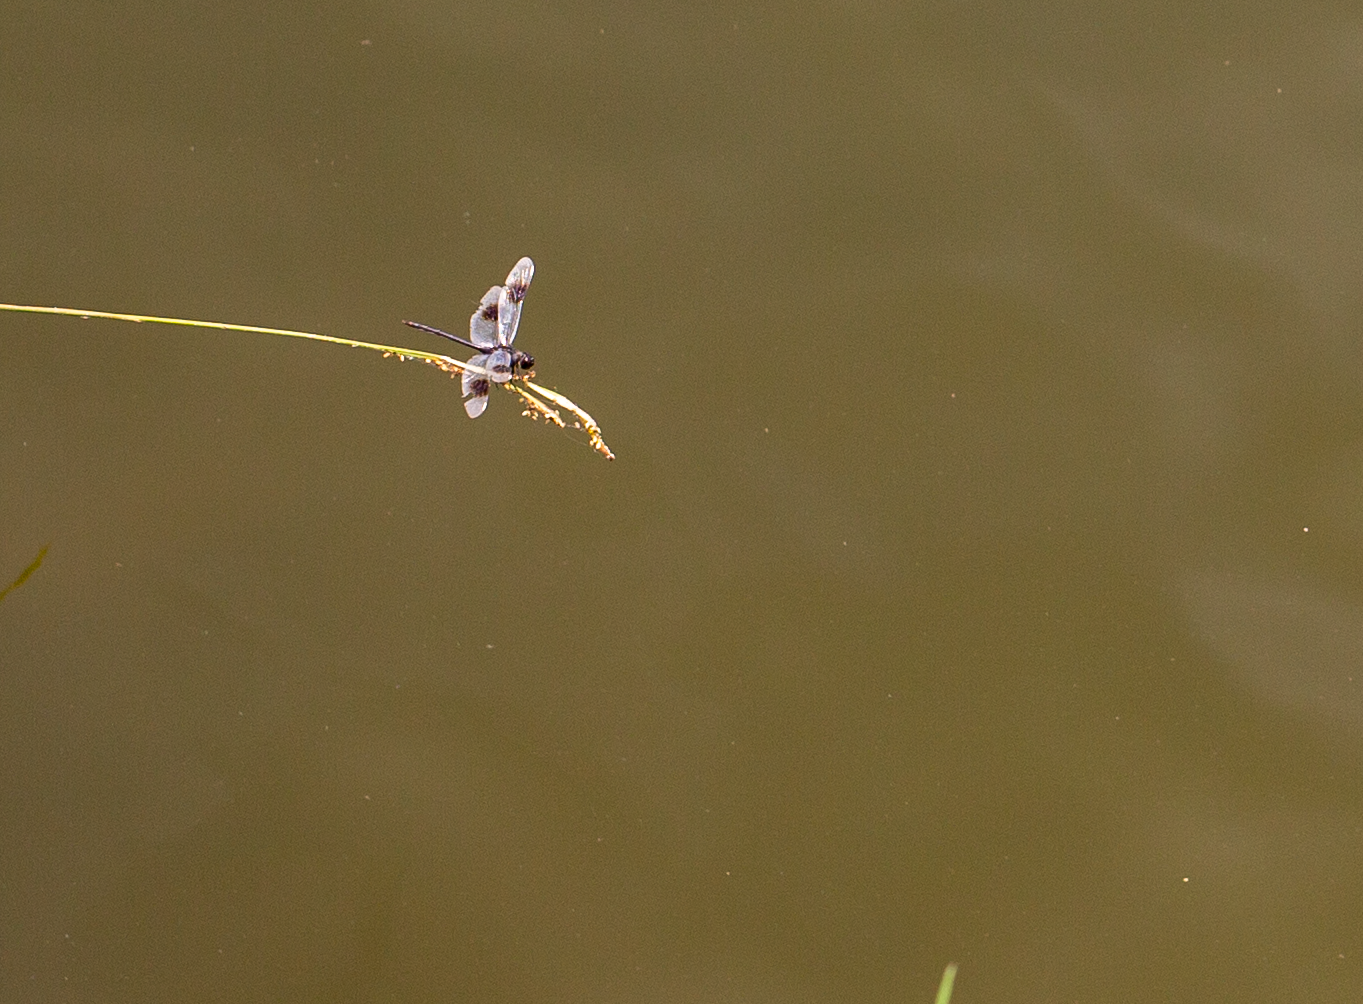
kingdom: Animalia
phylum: Arthropoda
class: Insecta
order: Odonata
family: Libellulidae
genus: Brachymesia
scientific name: Brachymesia gravida
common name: Four-spotted pennant
